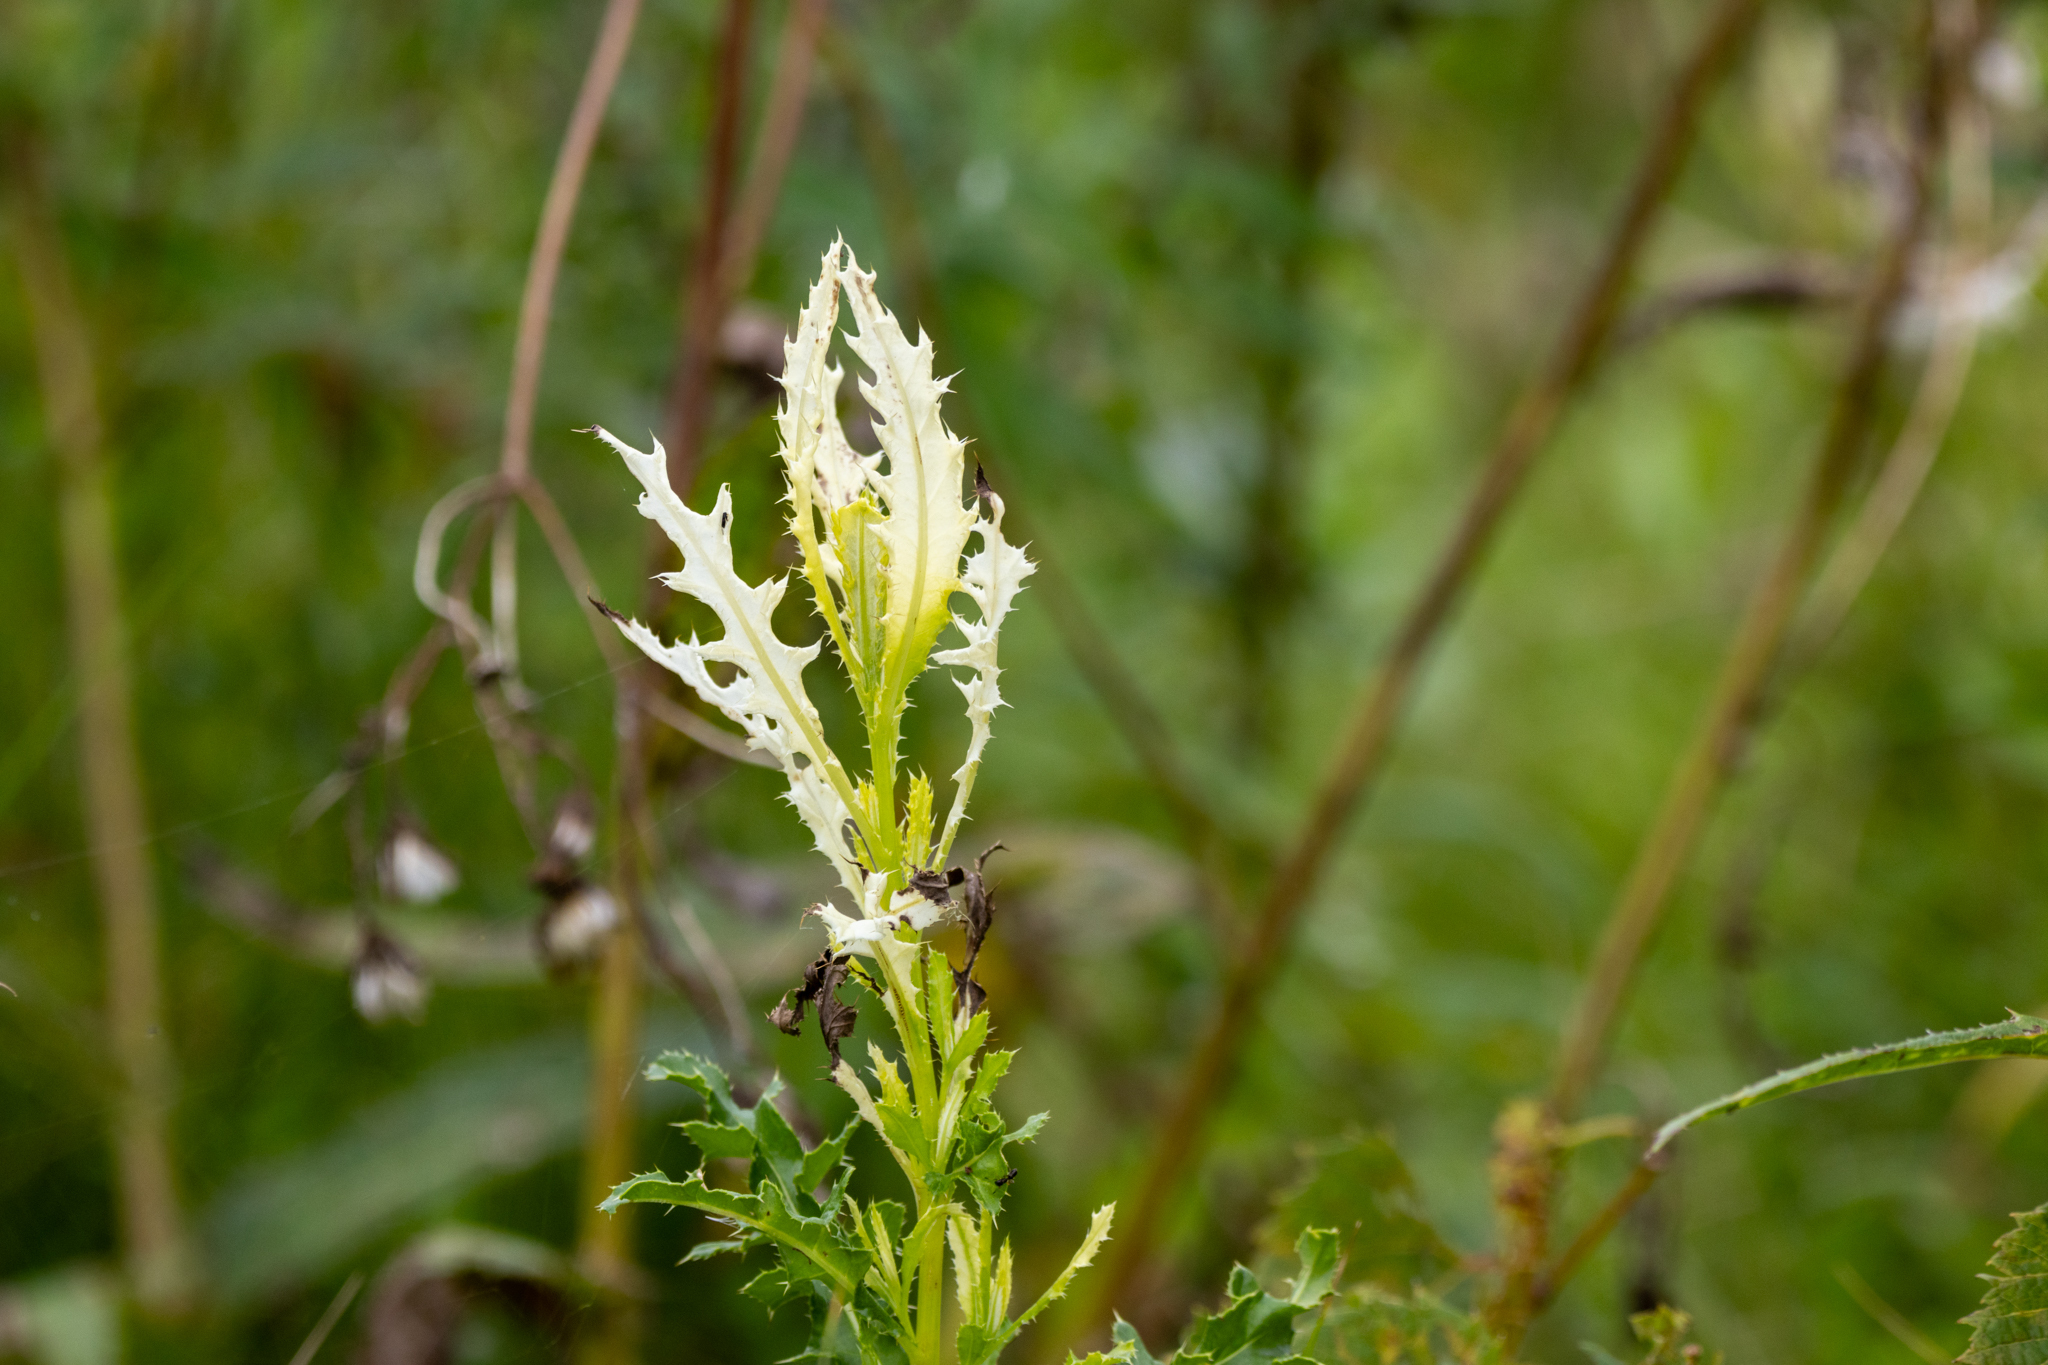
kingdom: Bacteria
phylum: Proteobacteria
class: Gammaproteobacteria
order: Pseudomonadales
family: Pseudomonadaceae
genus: Pseudomonas
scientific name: Pseudomonas syringae
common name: Bacterial speck
